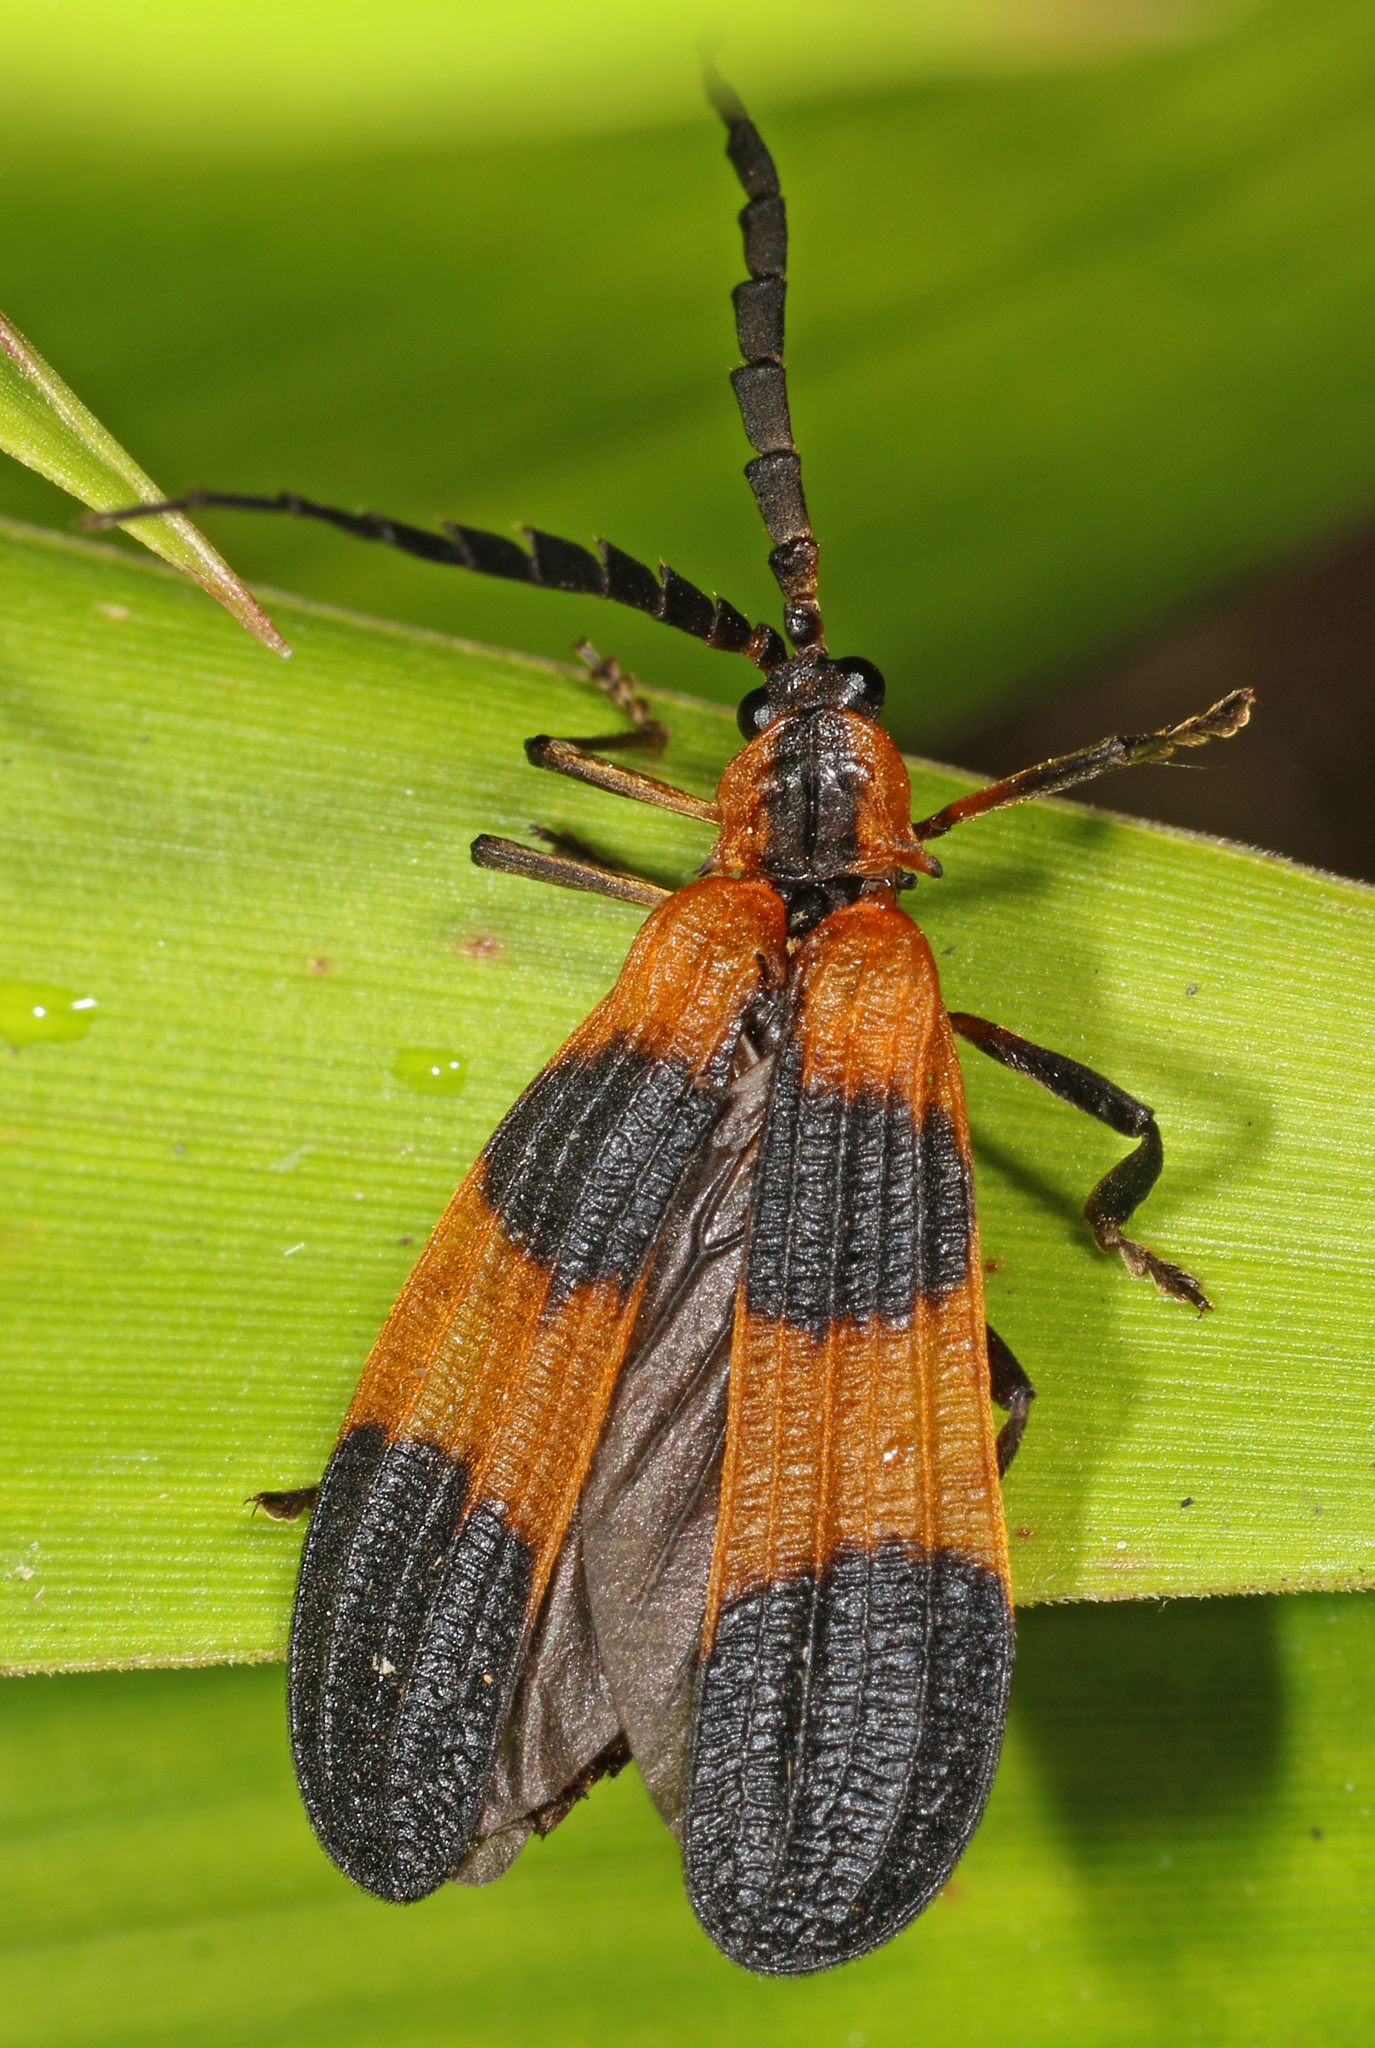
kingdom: Animalia
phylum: Arthropoda
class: Insecta
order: Coleoptera
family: Lycidae
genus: Calopteron
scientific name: Calopteron reticulatum
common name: Banded net-winged beetle
